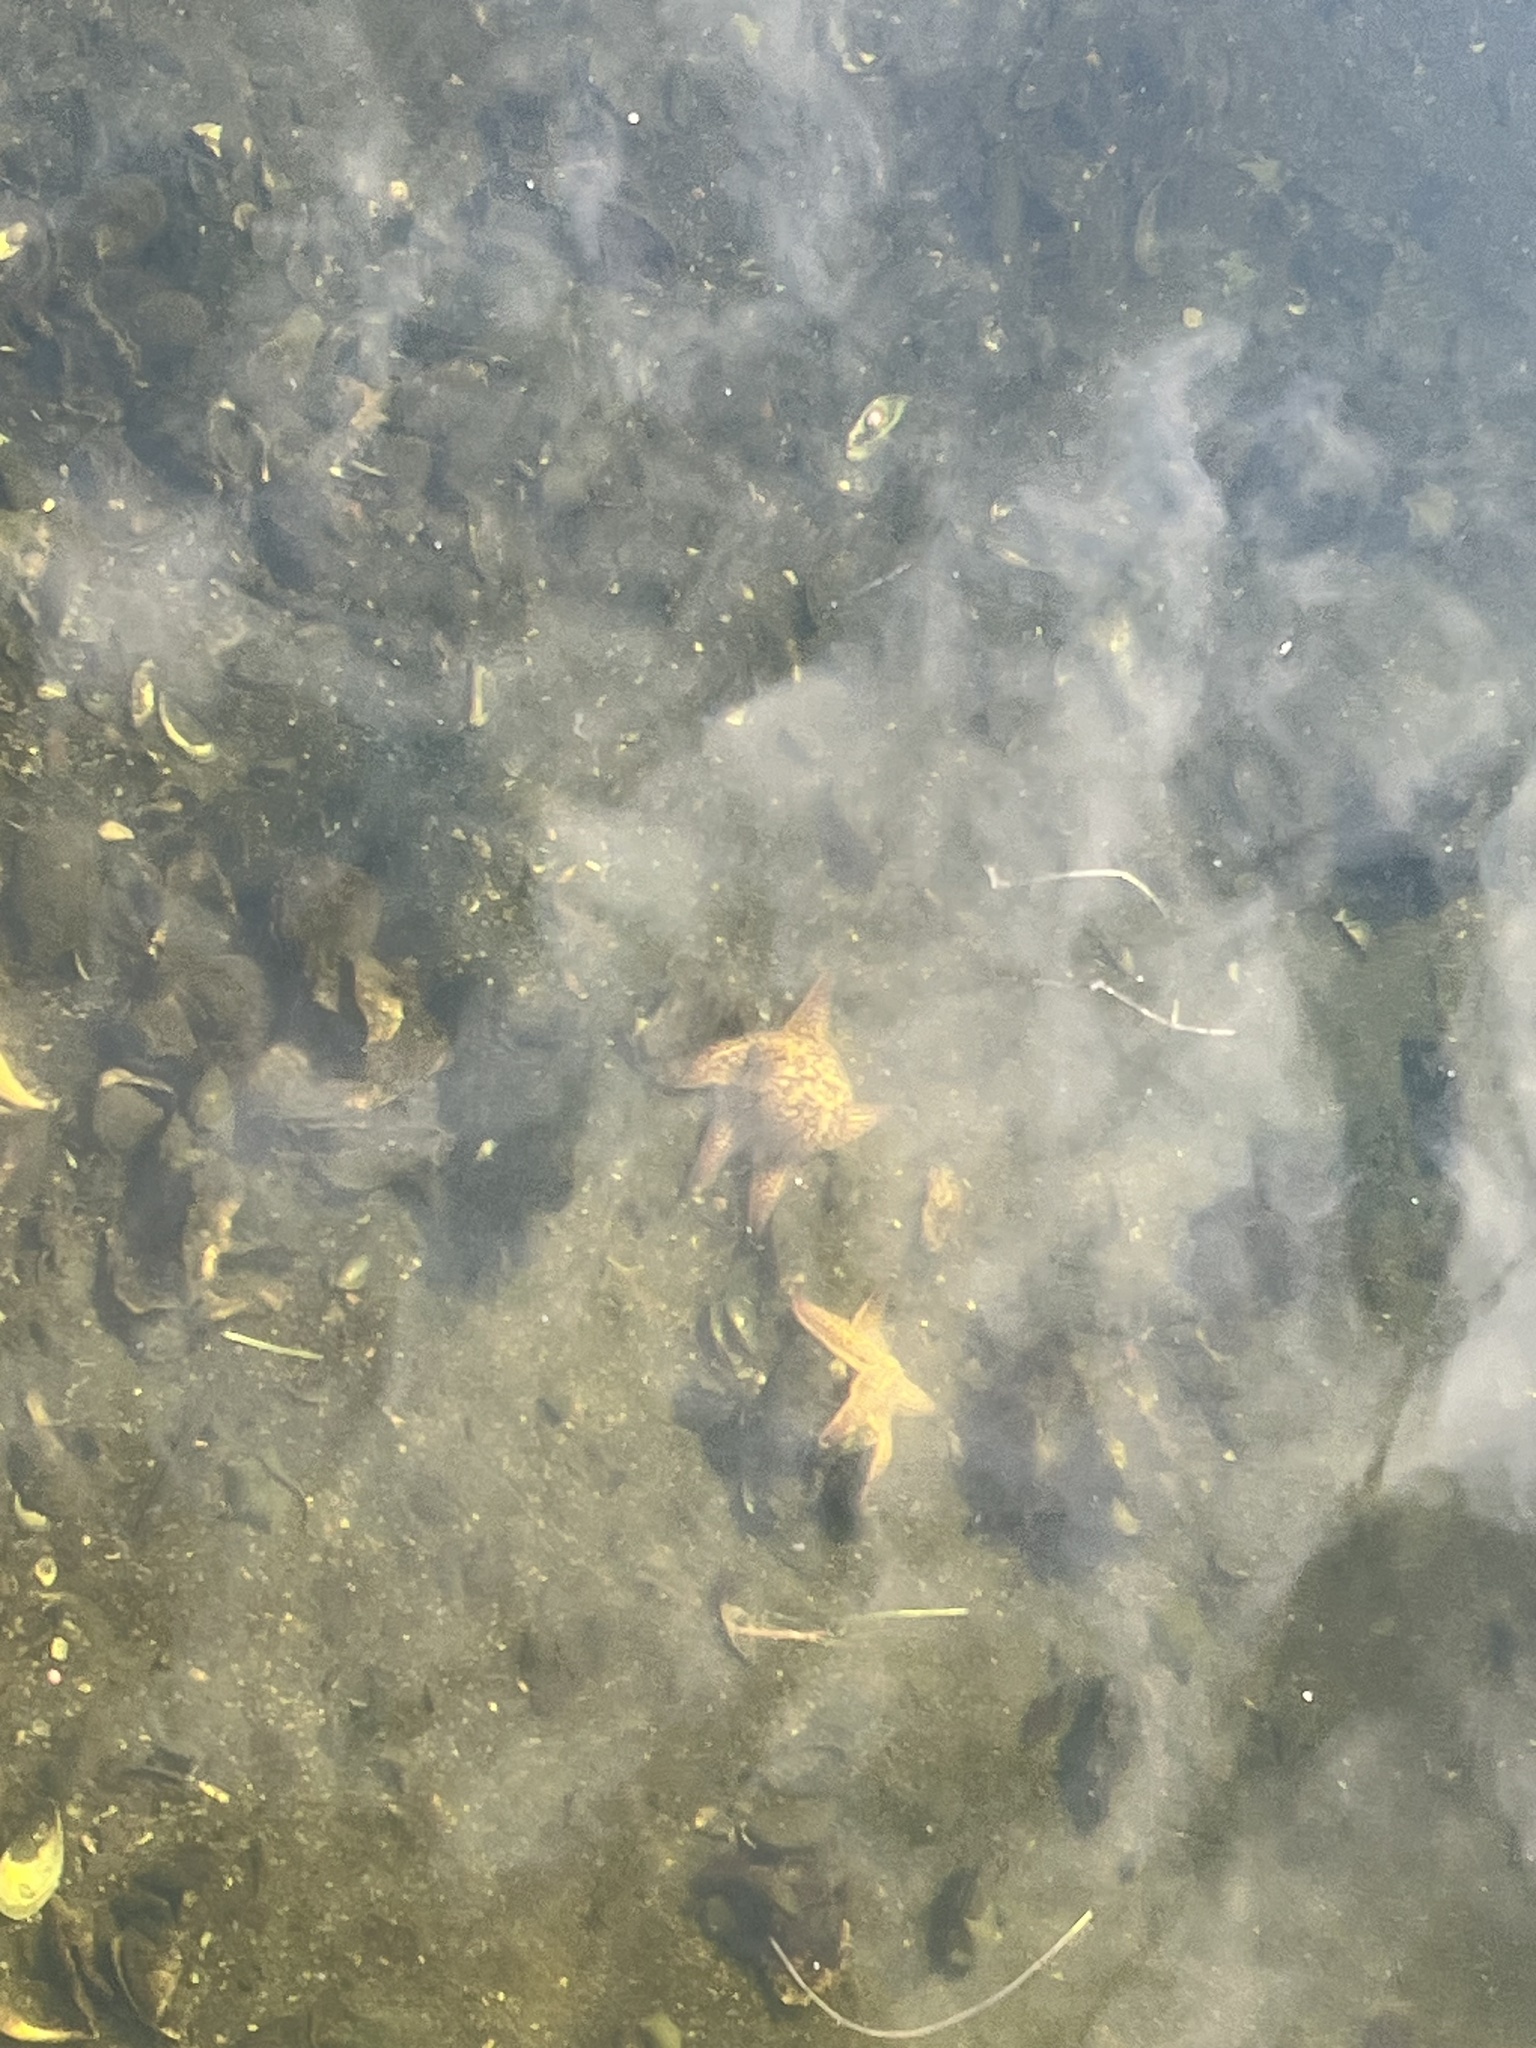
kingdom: Animalia
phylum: Echinodermata
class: Asteroidea
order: Forcipulatida
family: Asteriidae
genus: Asterias
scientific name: Asterias amurensis
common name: Flat-bottomed star
